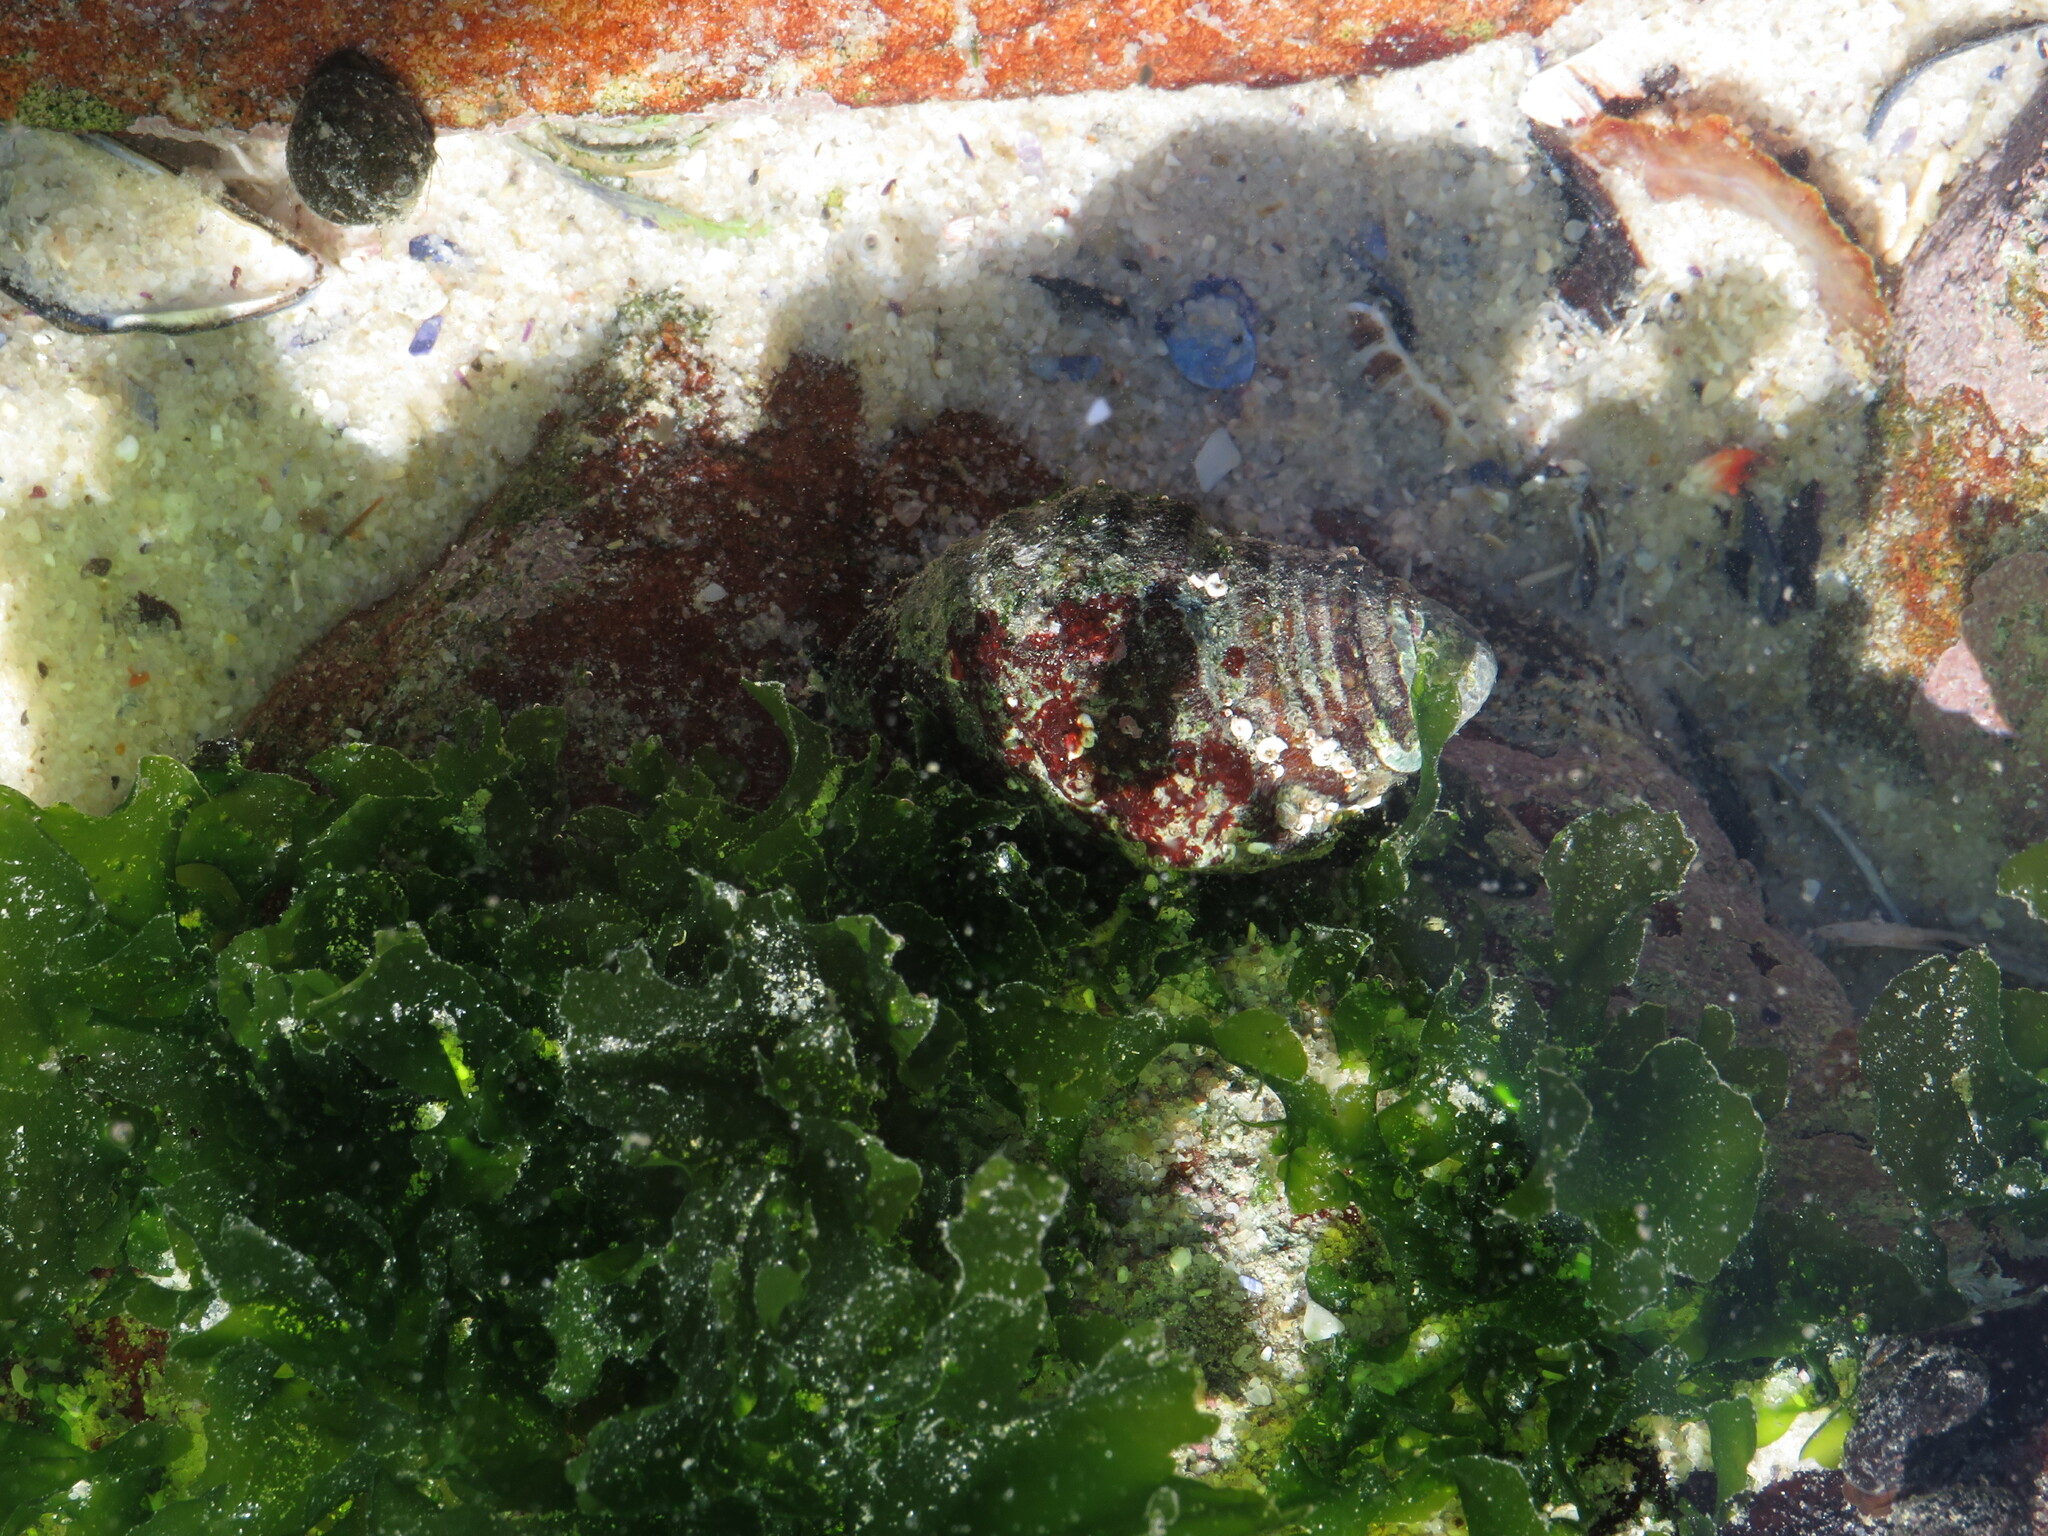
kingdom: Plantae
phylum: Chlorophyta
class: Ulvophyceae
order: Ulvales
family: Ulvaceae
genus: Ulva
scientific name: Ulva rigida
